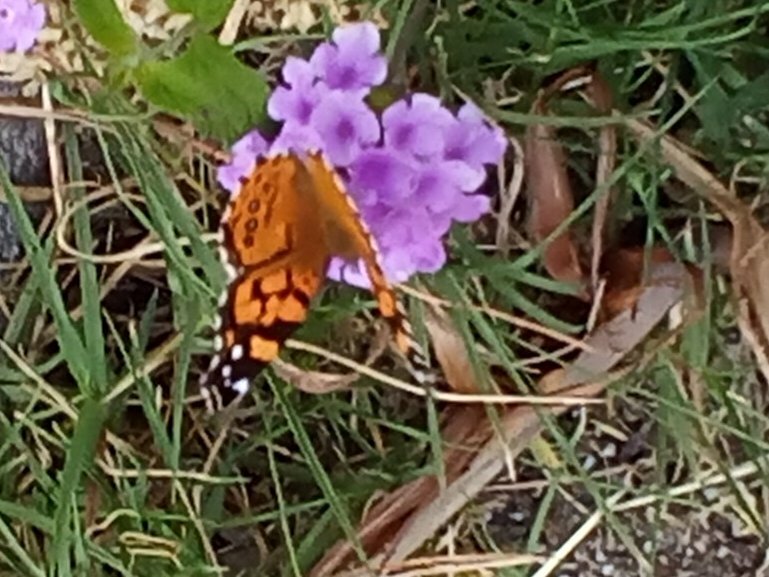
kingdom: Animalia
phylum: Arthropoda
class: Insecta
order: Lepidoptera
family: Nymphalidae
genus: Vanessa
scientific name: Vanessa annabella
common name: West coast lady
